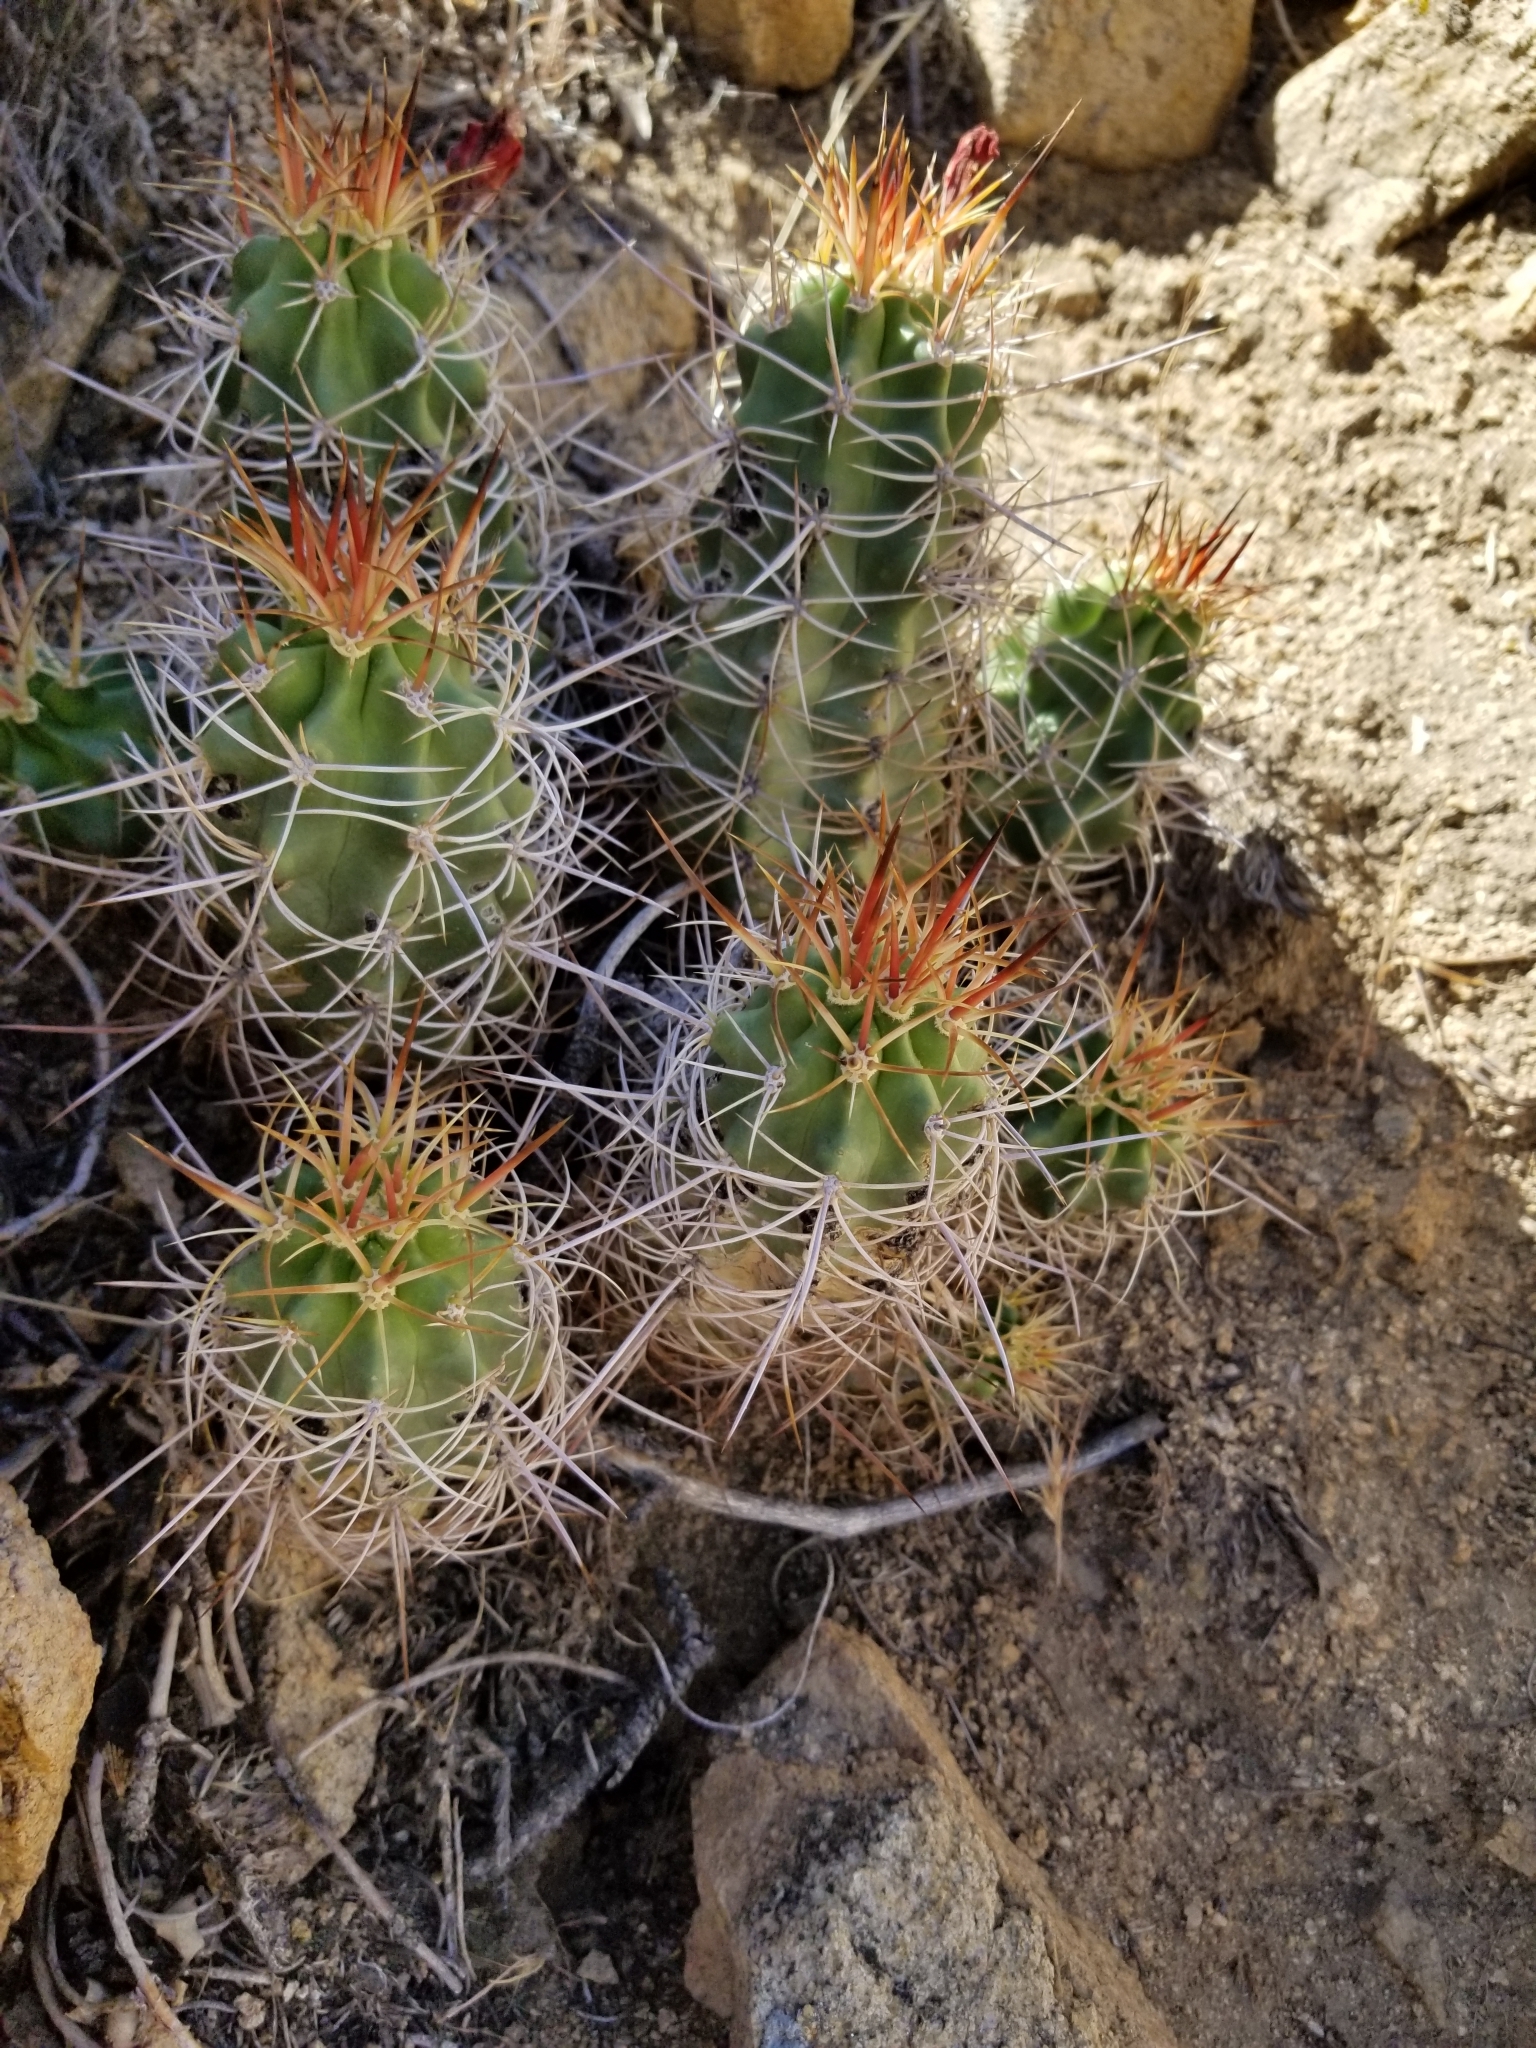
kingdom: Plantae
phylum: Tracheophyta
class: Magnoliopsida
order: Caryophyllales
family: Cactaceae
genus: Echinocereus
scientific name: Echinocereus triglochidiatus
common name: Claretcup hedgehog
